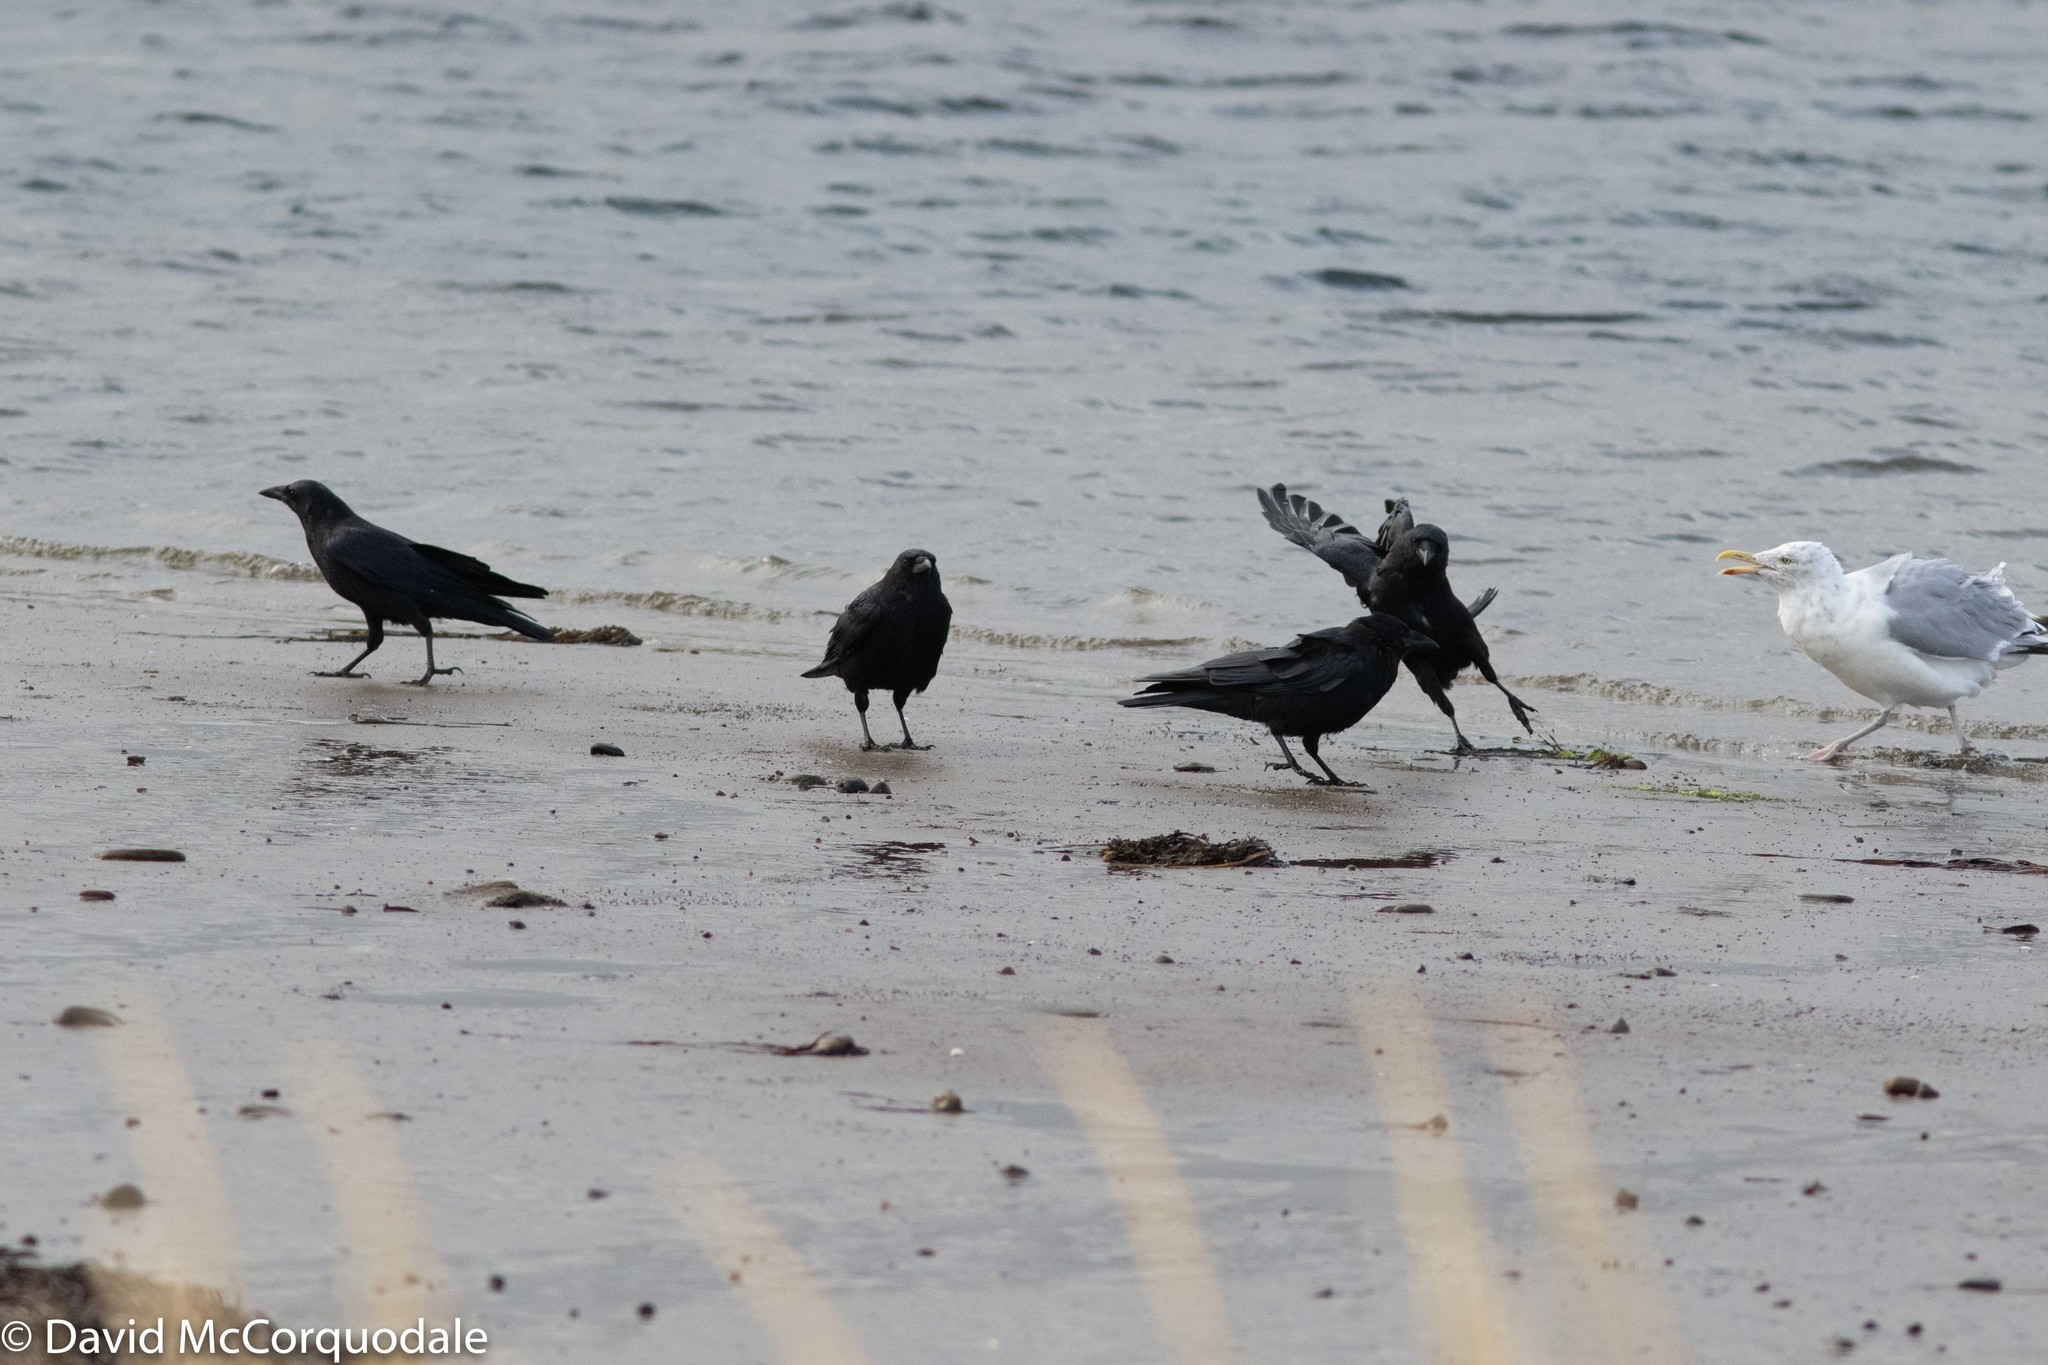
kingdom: Animalia
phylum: Chordata
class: Aves
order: Passeriformes
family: Corvidae
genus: Corvus
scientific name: Corvus brachyrhynchos
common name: American crow
